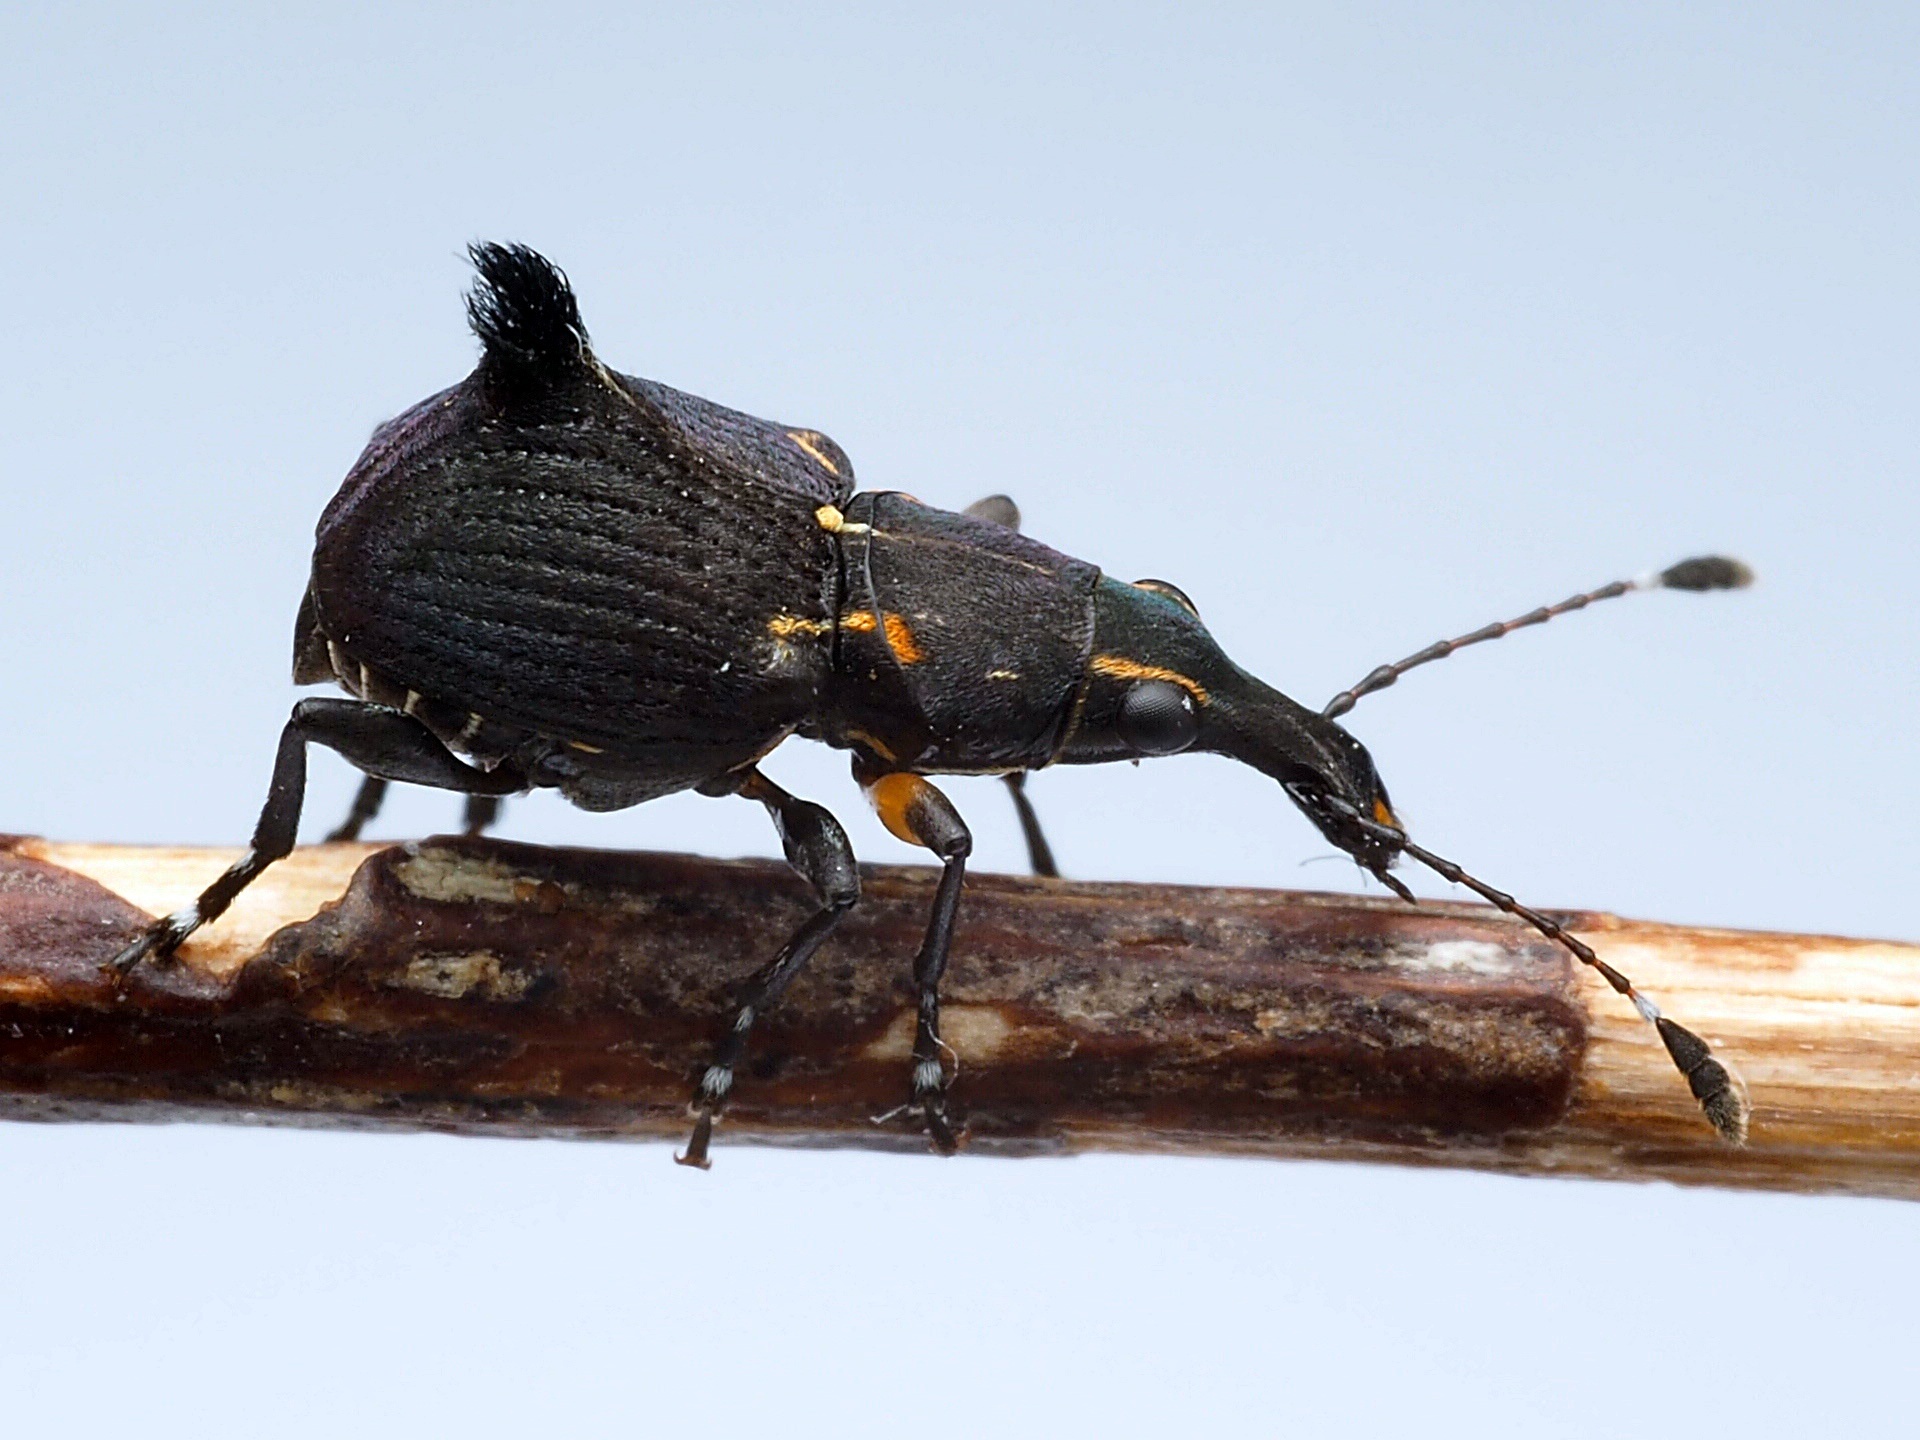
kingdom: Animalia
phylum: Arthropoda
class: Insecta
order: Coleoptera
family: Anthribidae
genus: Hoplorhaphus
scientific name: Hoplorhaphus
